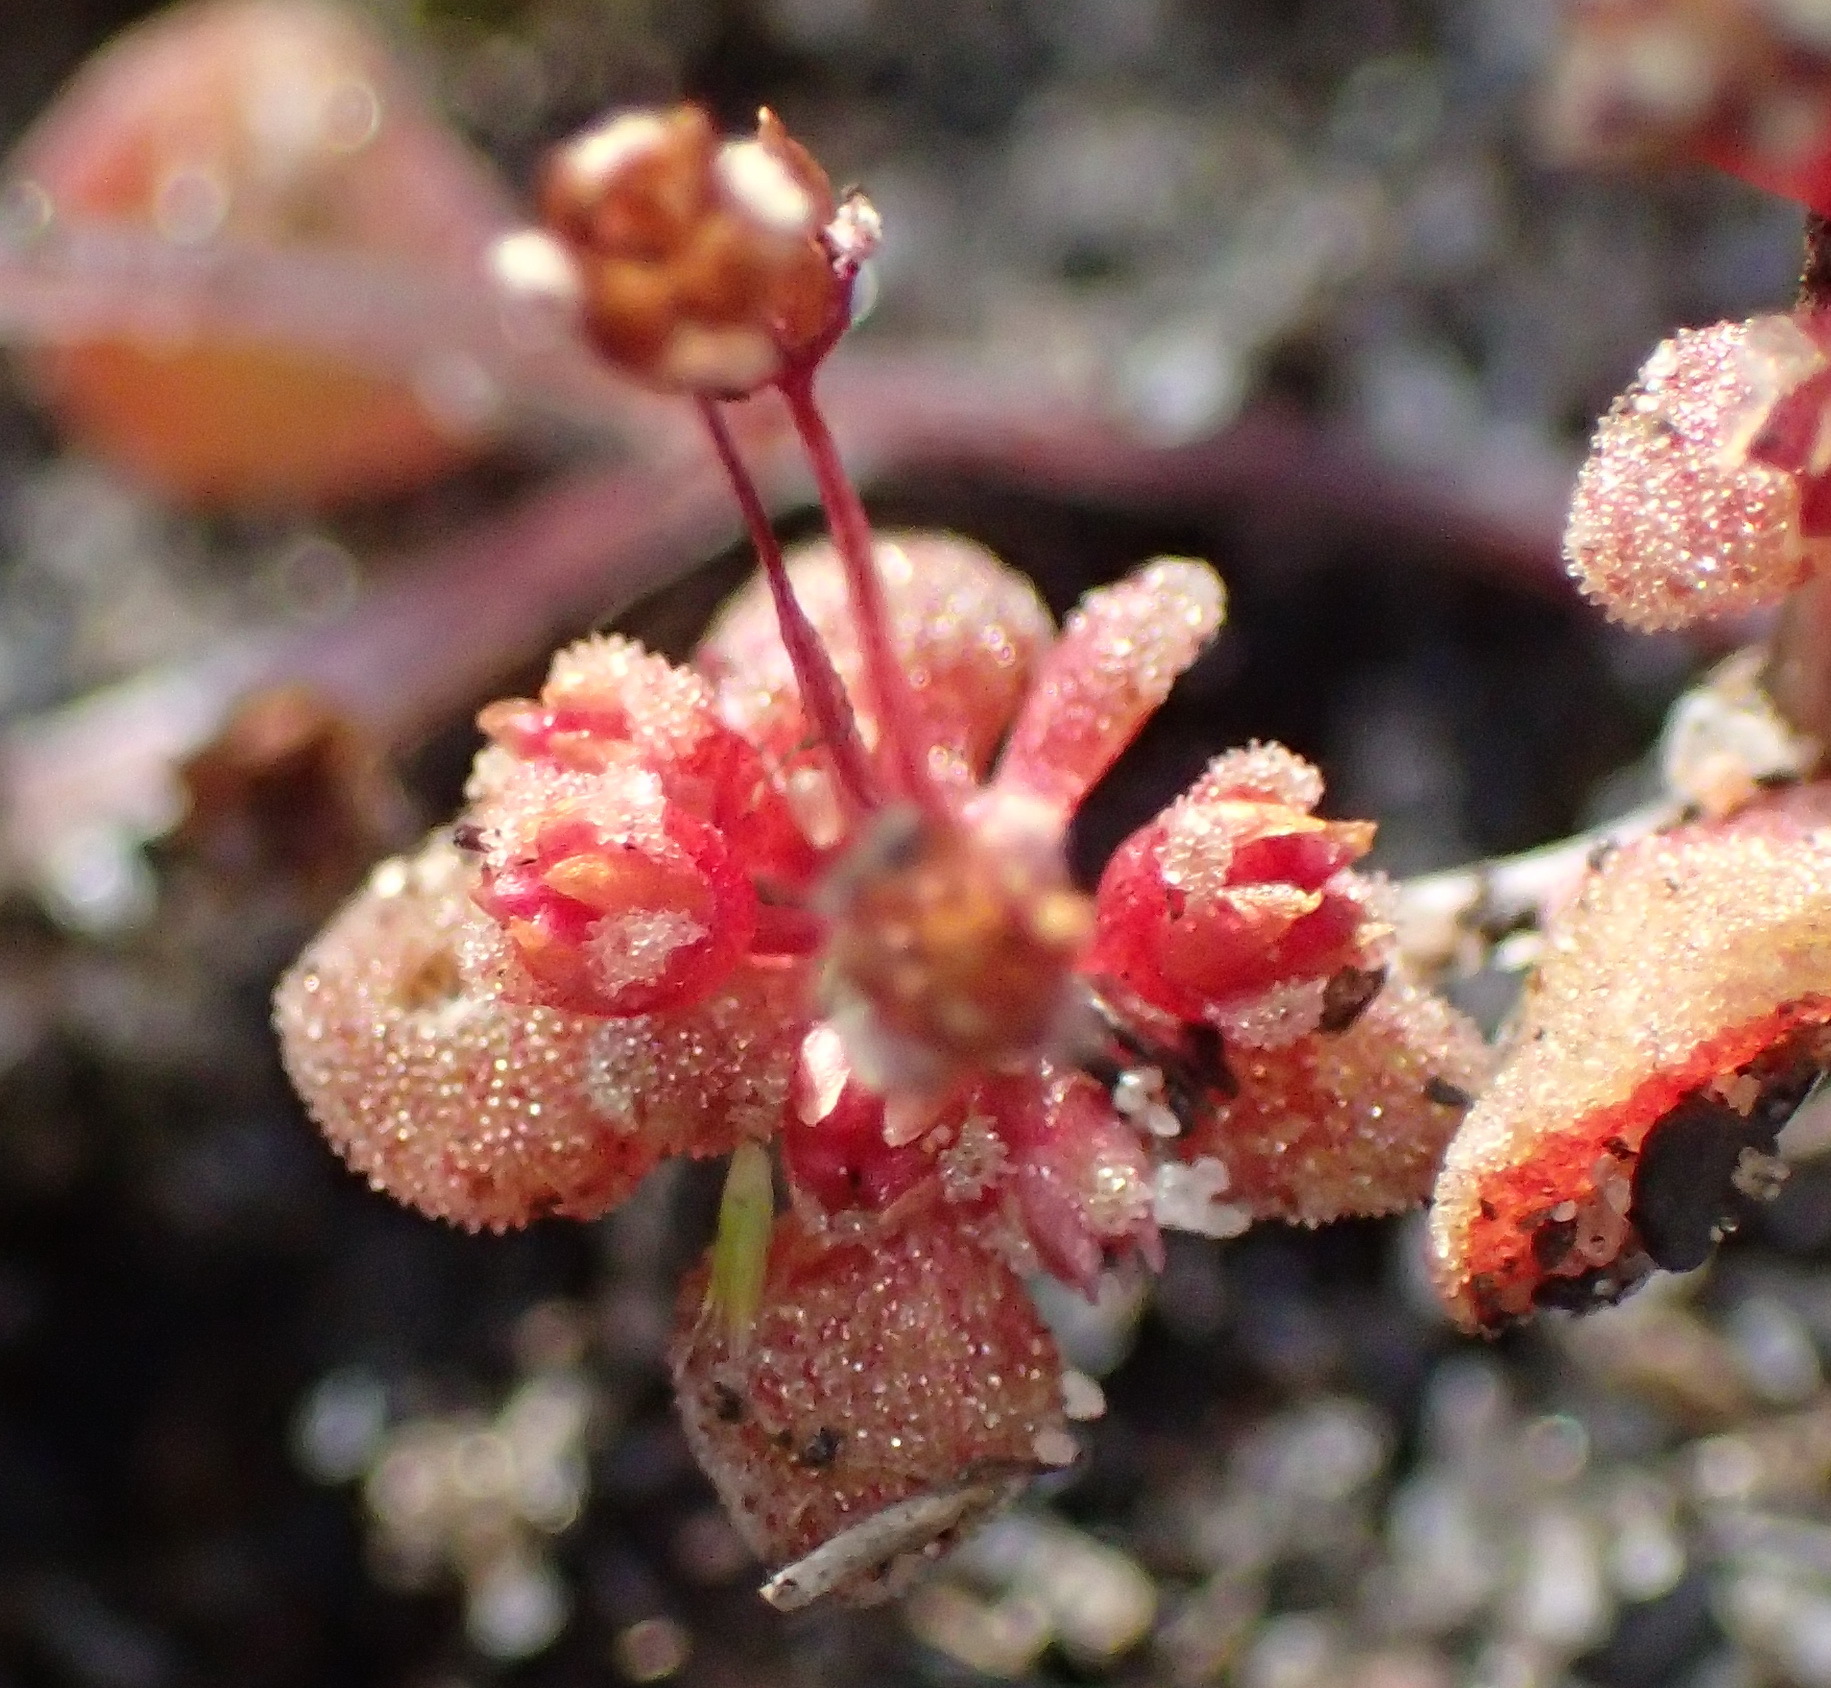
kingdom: Plantae
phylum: Tracheophyta
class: Magnoliopsida
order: Saxifragales
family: Crassulaceae
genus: Crassula
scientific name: Crassula umbellata
